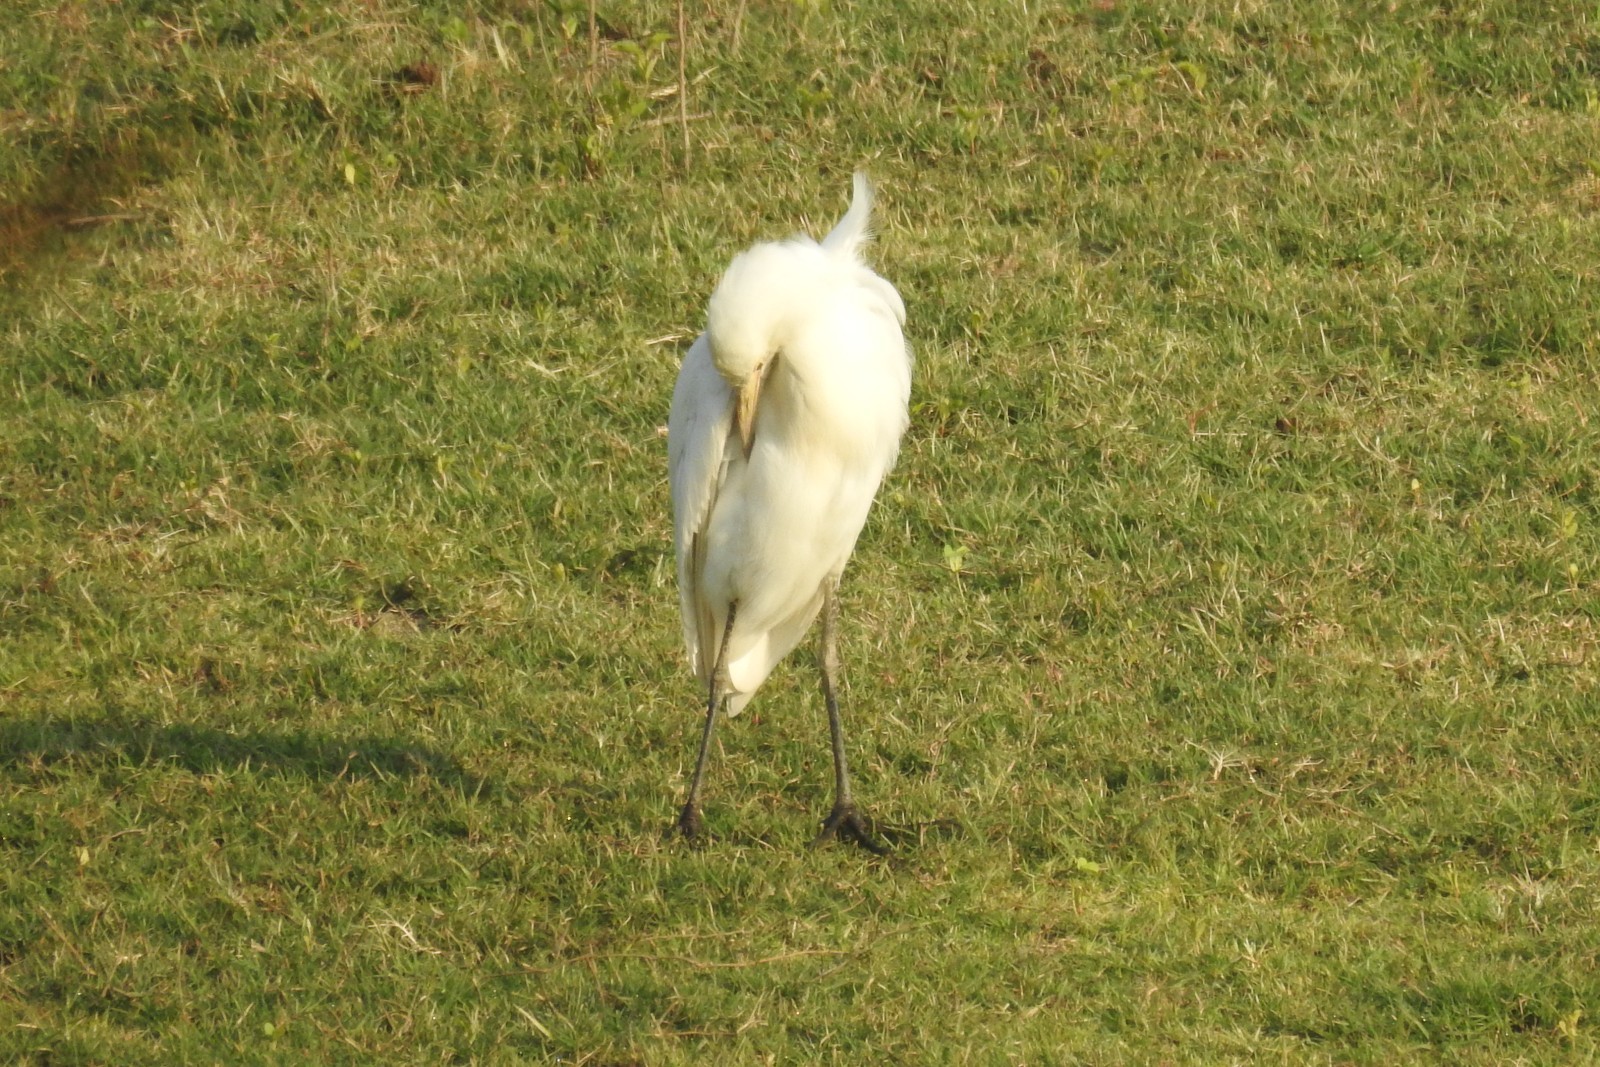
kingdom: Animalia
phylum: Chordata
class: Aves
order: Pelecaniformes
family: Ardeidae
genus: Bubulcus
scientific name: Bubulcus coromandus
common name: Eastern cattle egret
